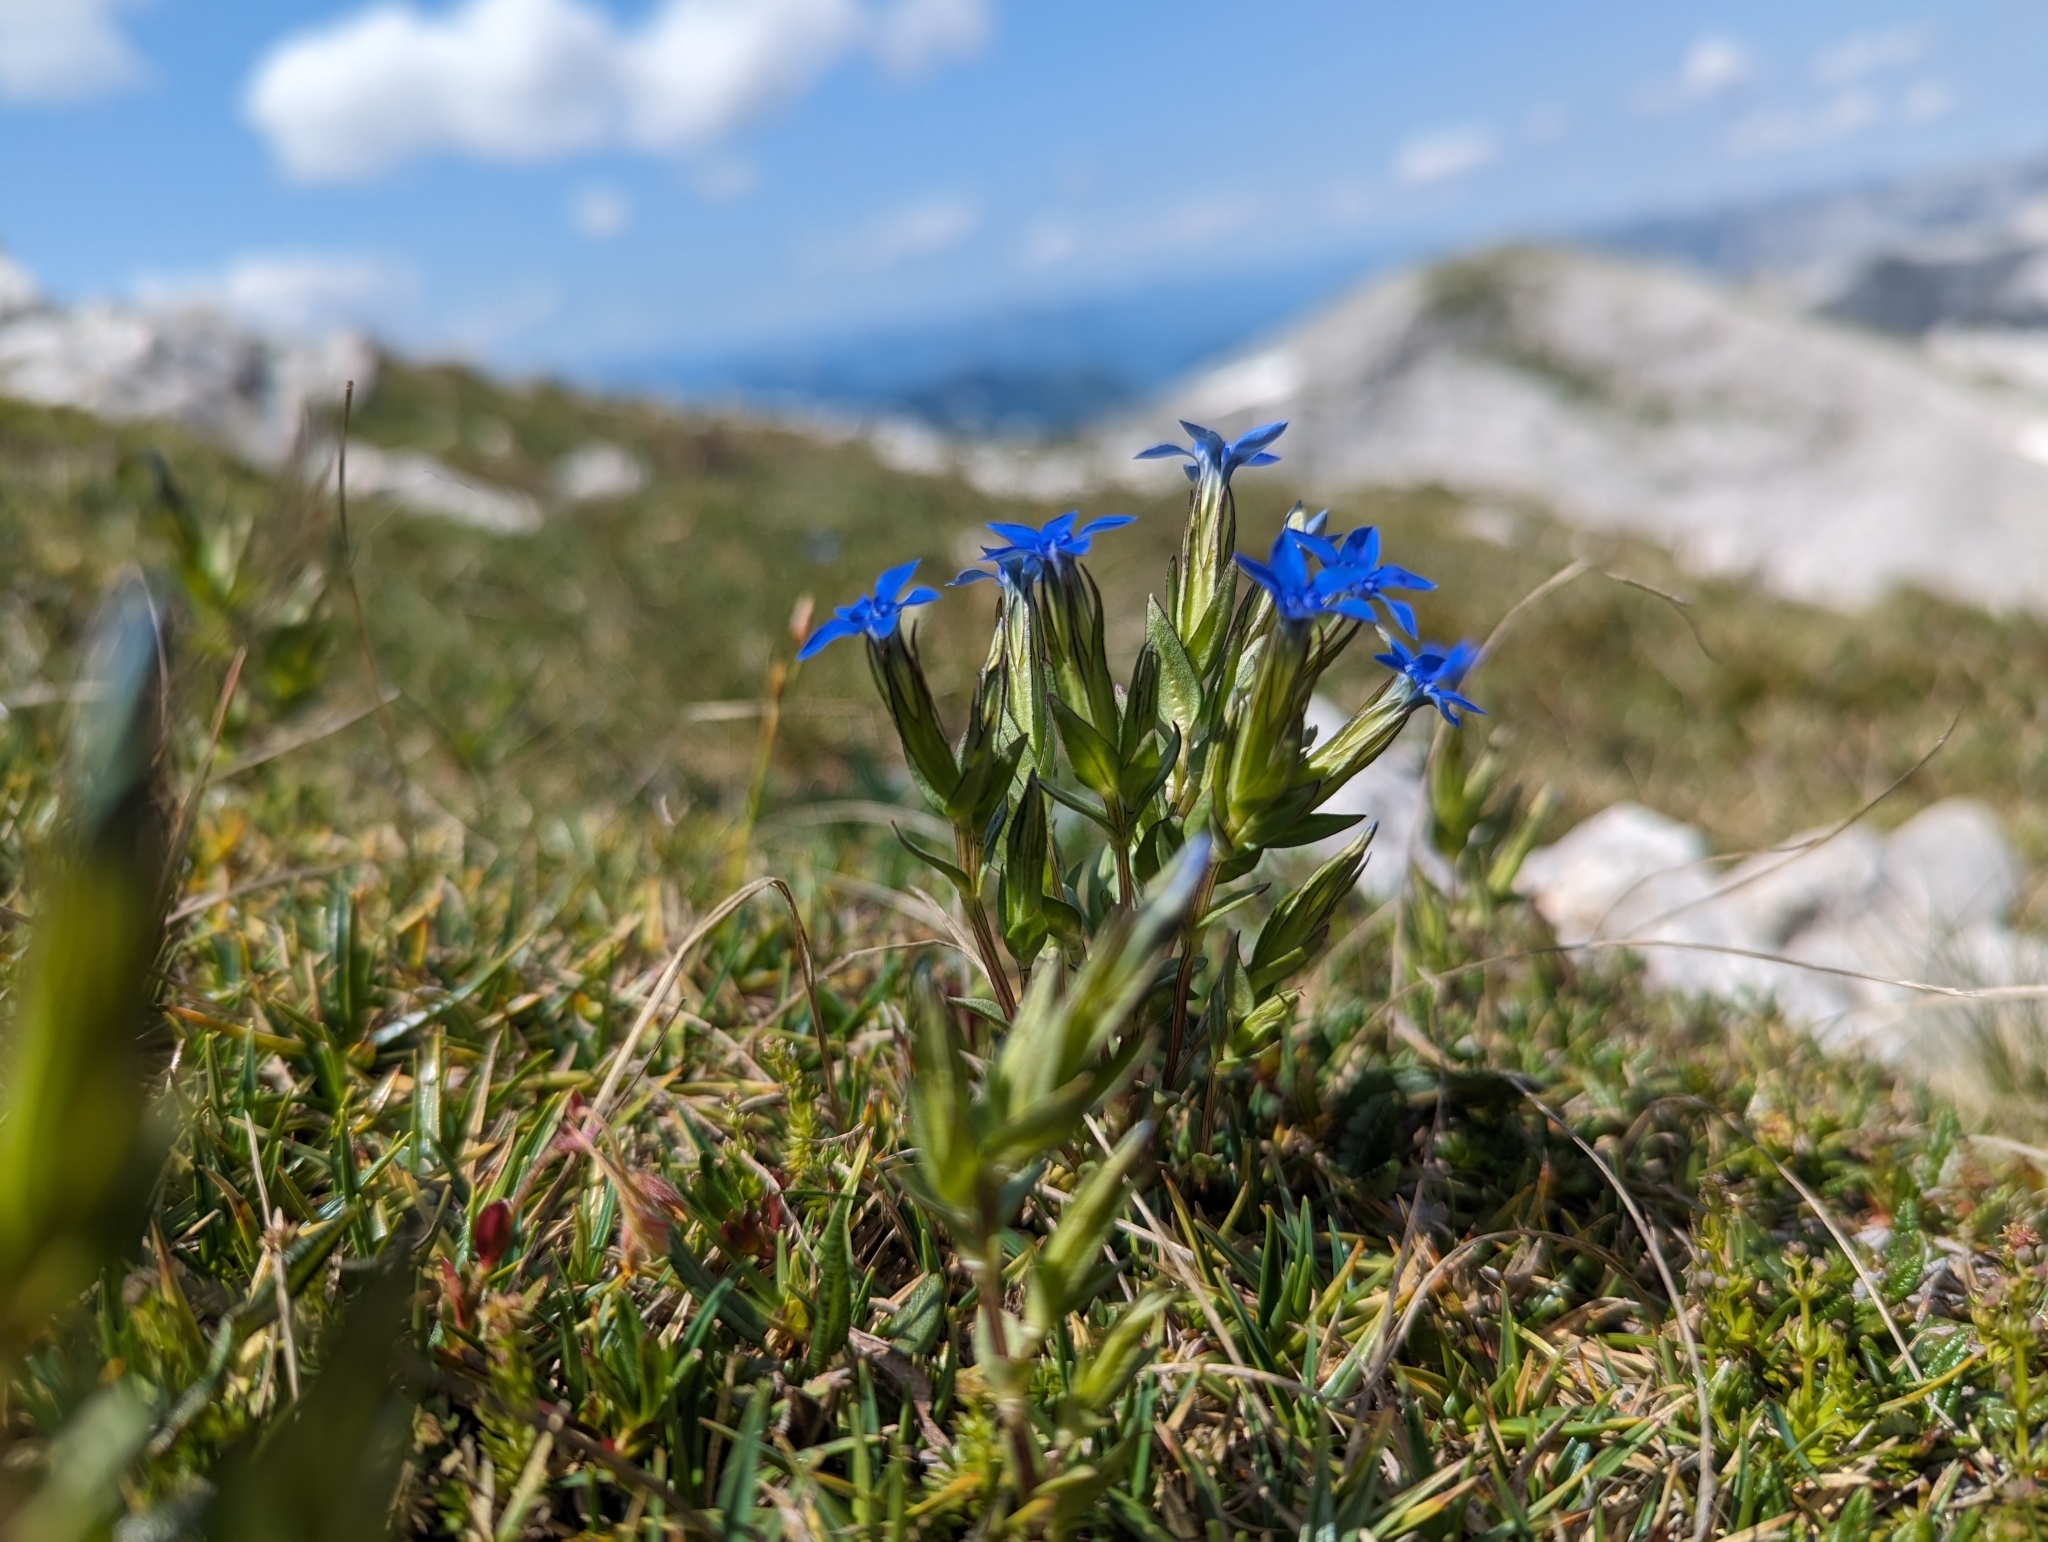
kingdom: Plantae
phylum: Tracheophyta
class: Magnoliopsida
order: Gentianales
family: Gentianaceae
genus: Gentiana
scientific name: Gentiana nivalis
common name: Alpine gentian
